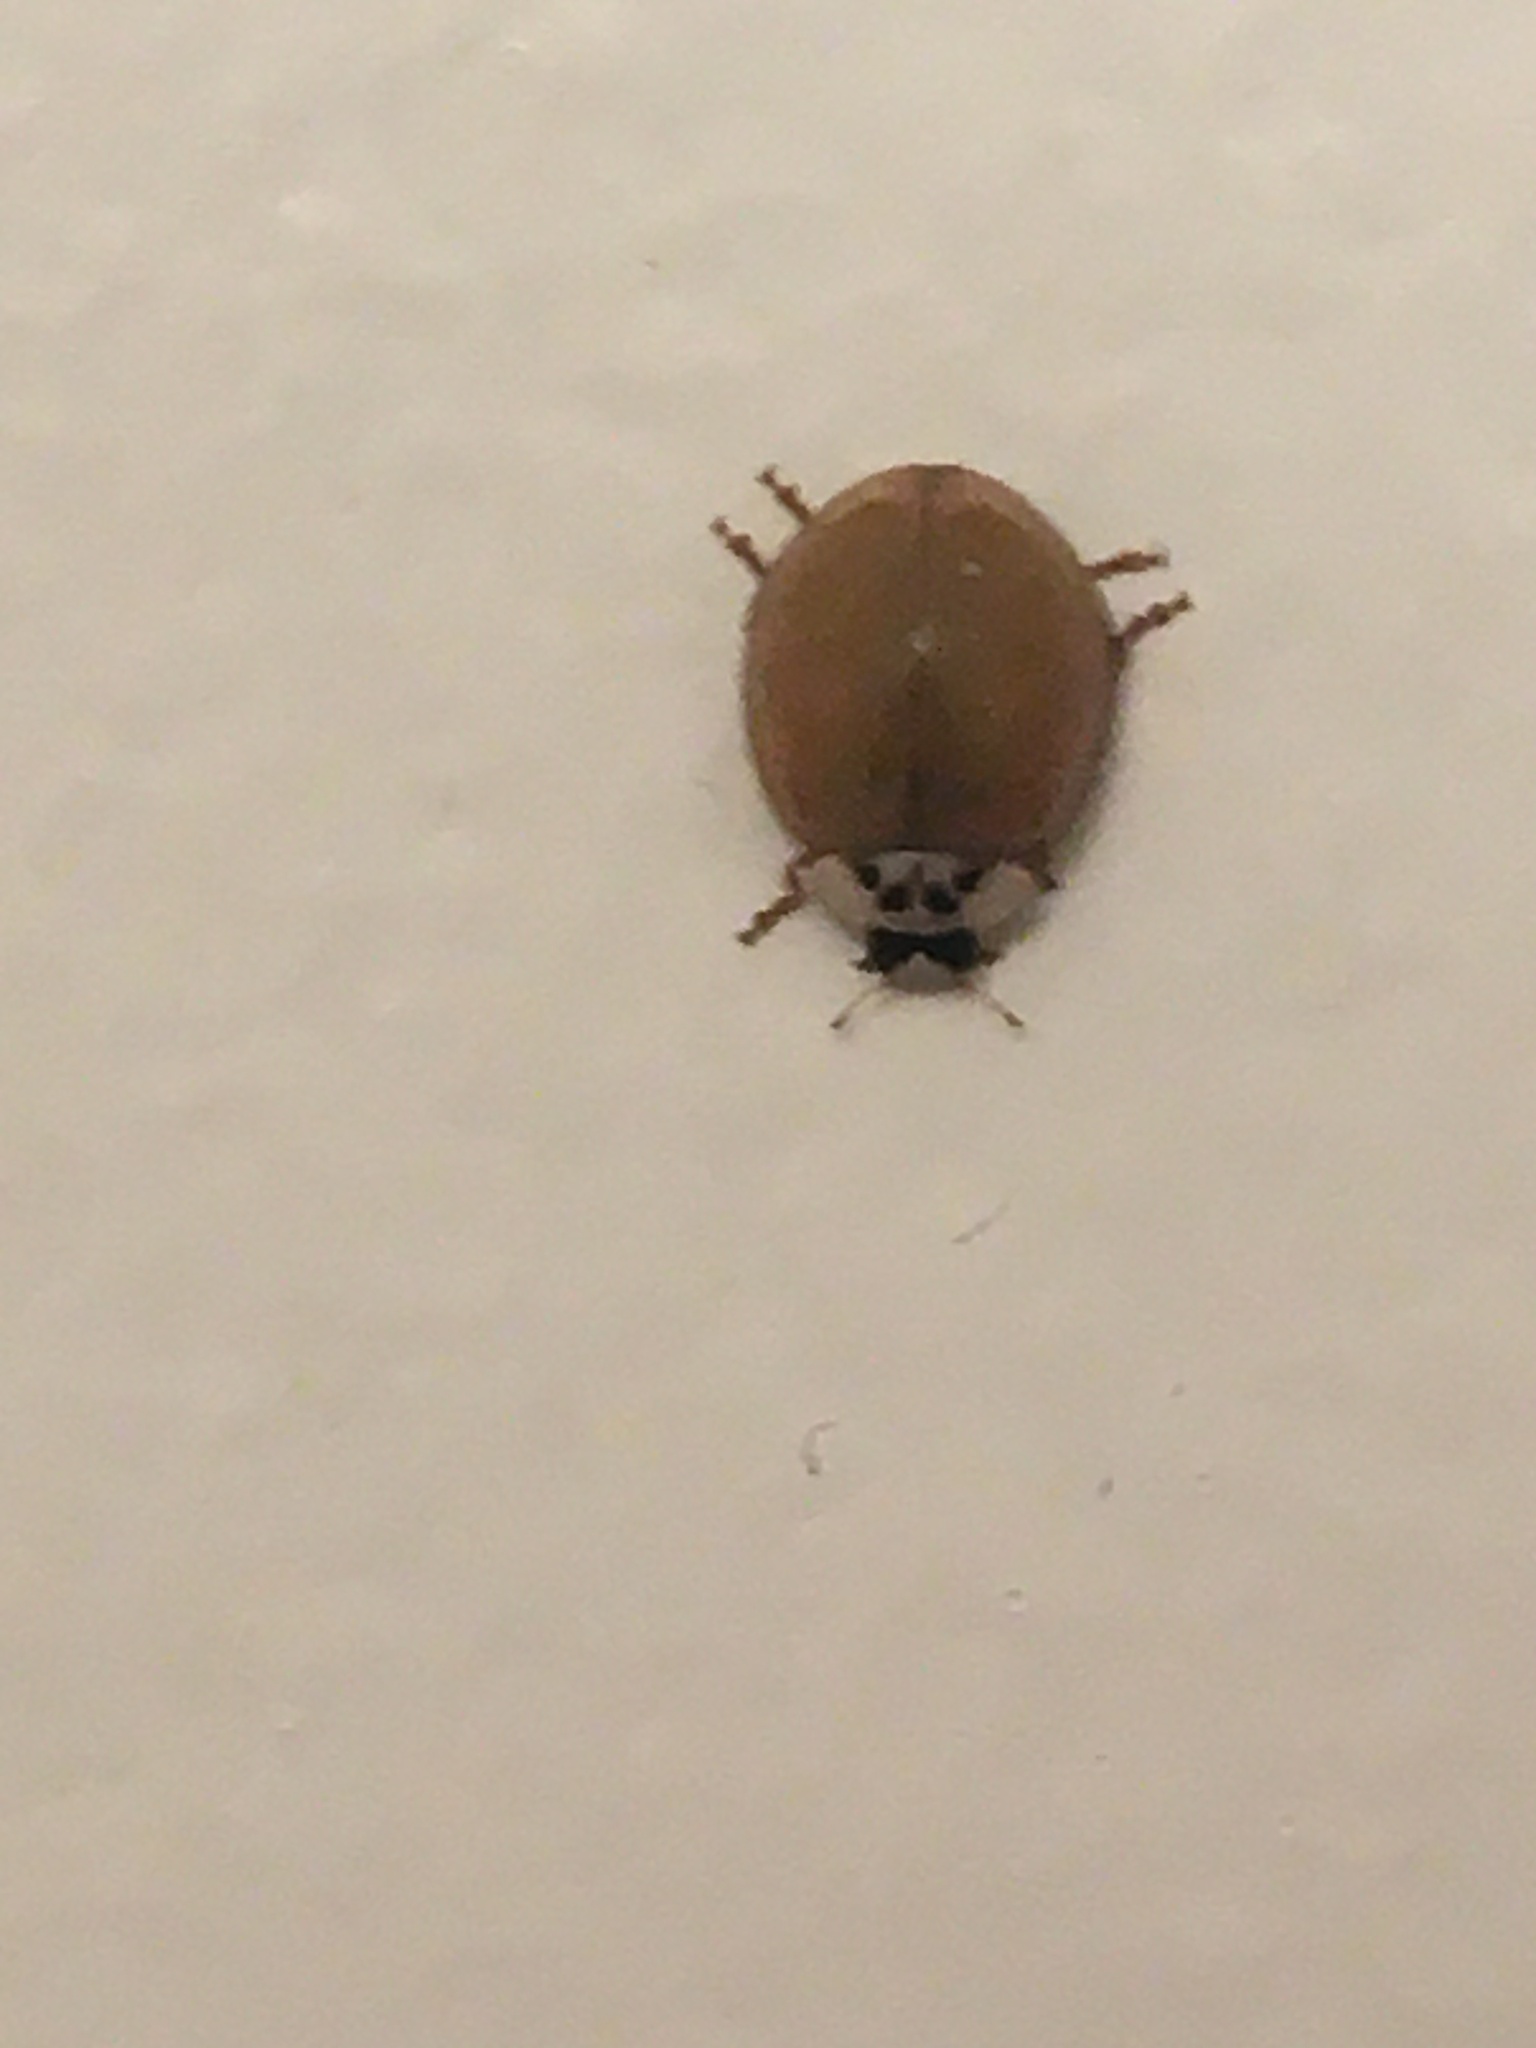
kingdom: Animalia
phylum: Arthropoda
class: Insecta
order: Coleoptera
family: Coccinellidae
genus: Harmonia
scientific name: Harmonia axyridis
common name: Harlequin ladybird
